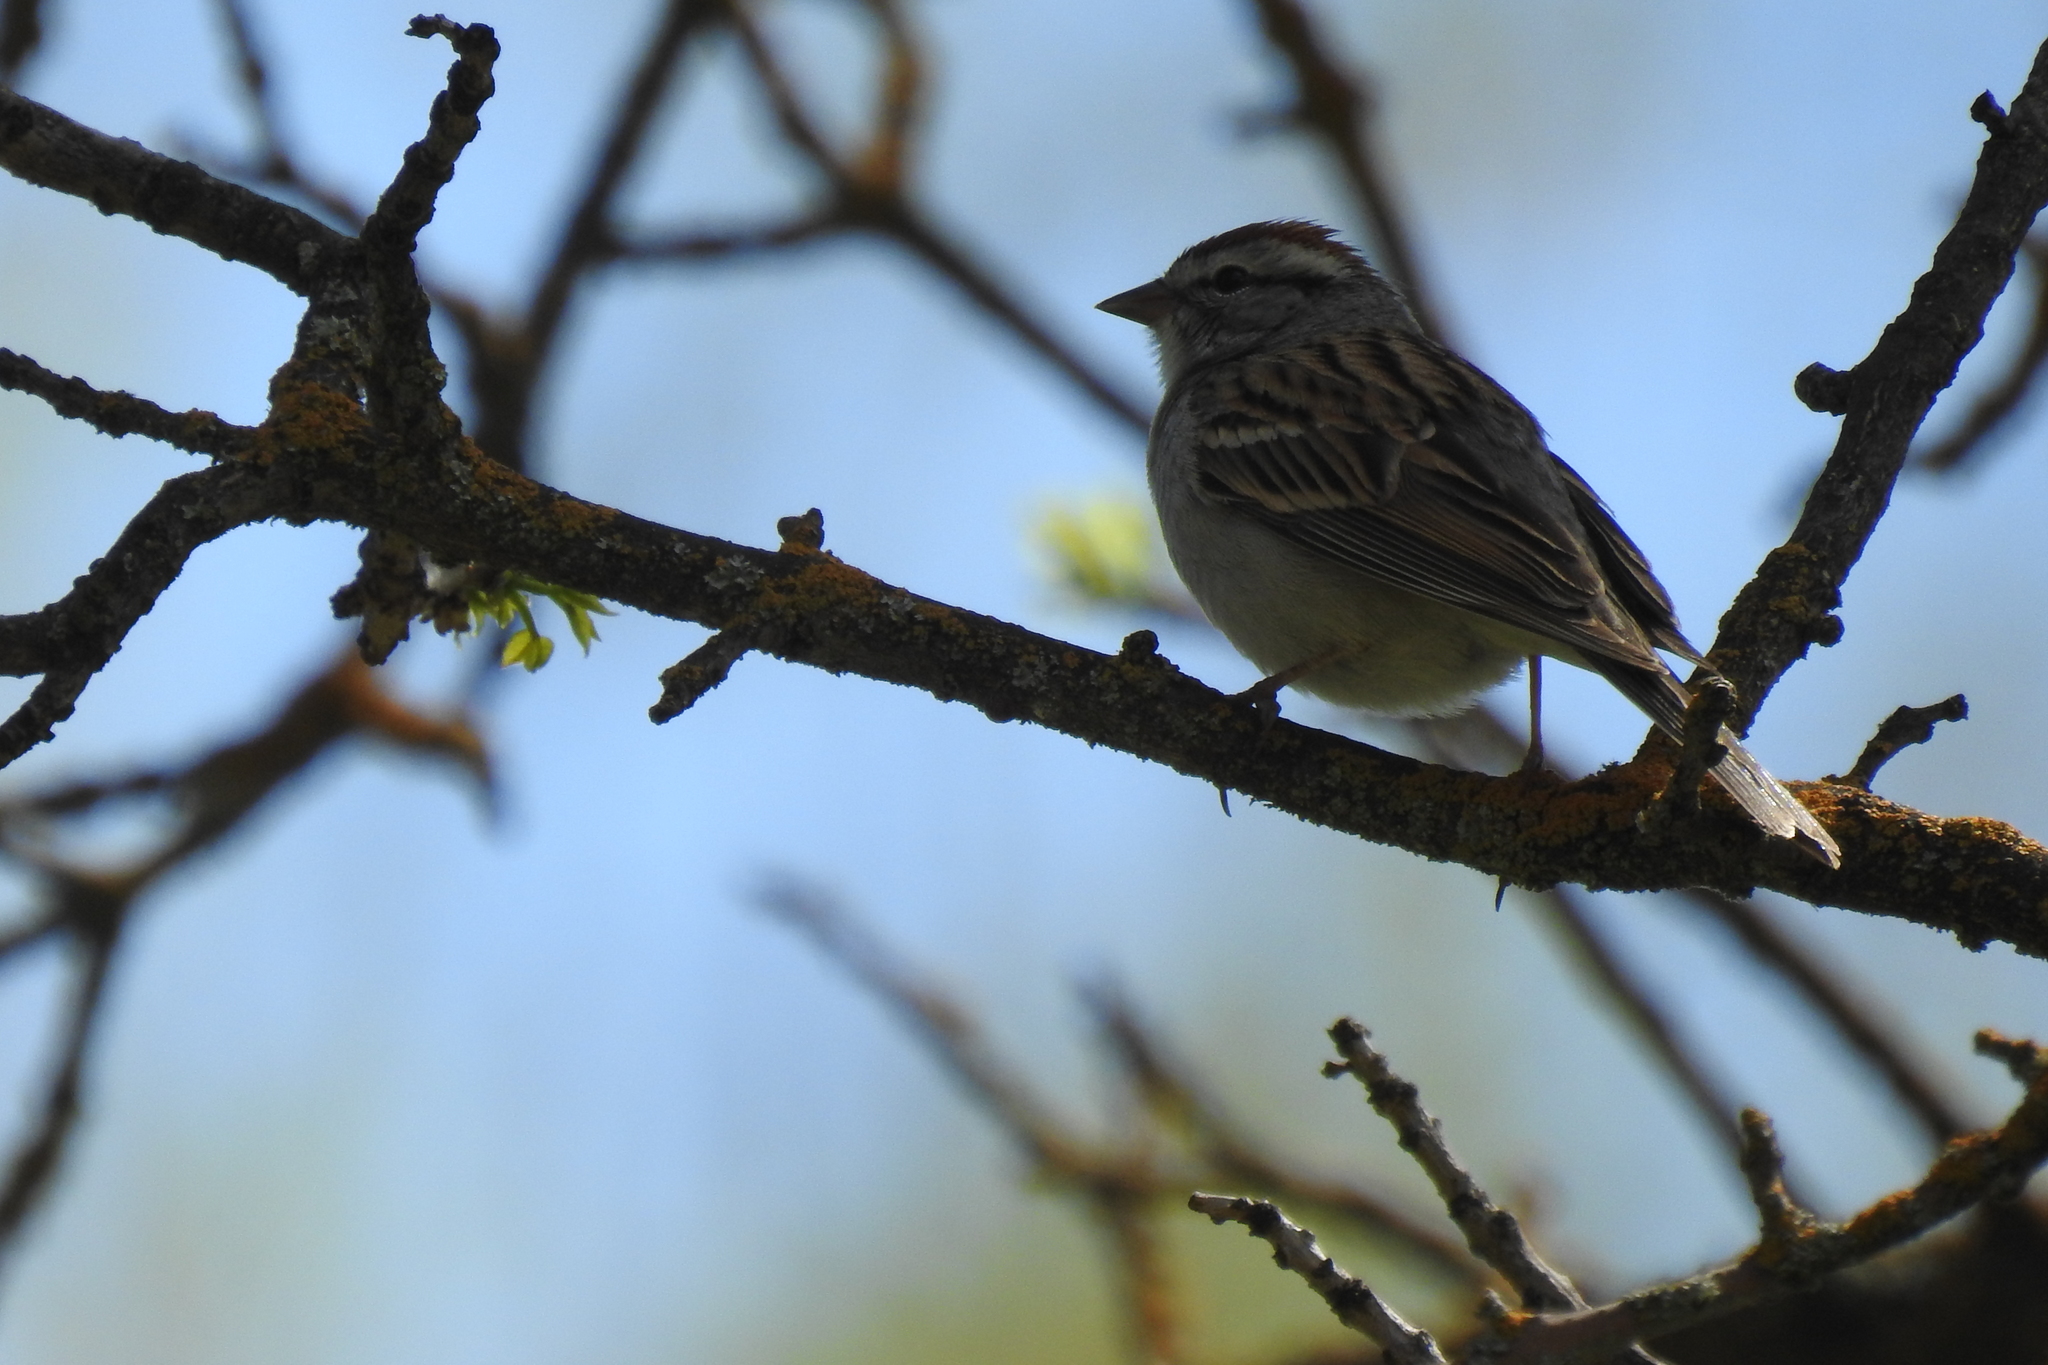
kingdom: Animalia
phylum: Chordata
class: Aves
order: Passeriformes
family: Passerellidae
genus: Spizella
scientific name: Spizella passerina
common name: Chipping sparrow
